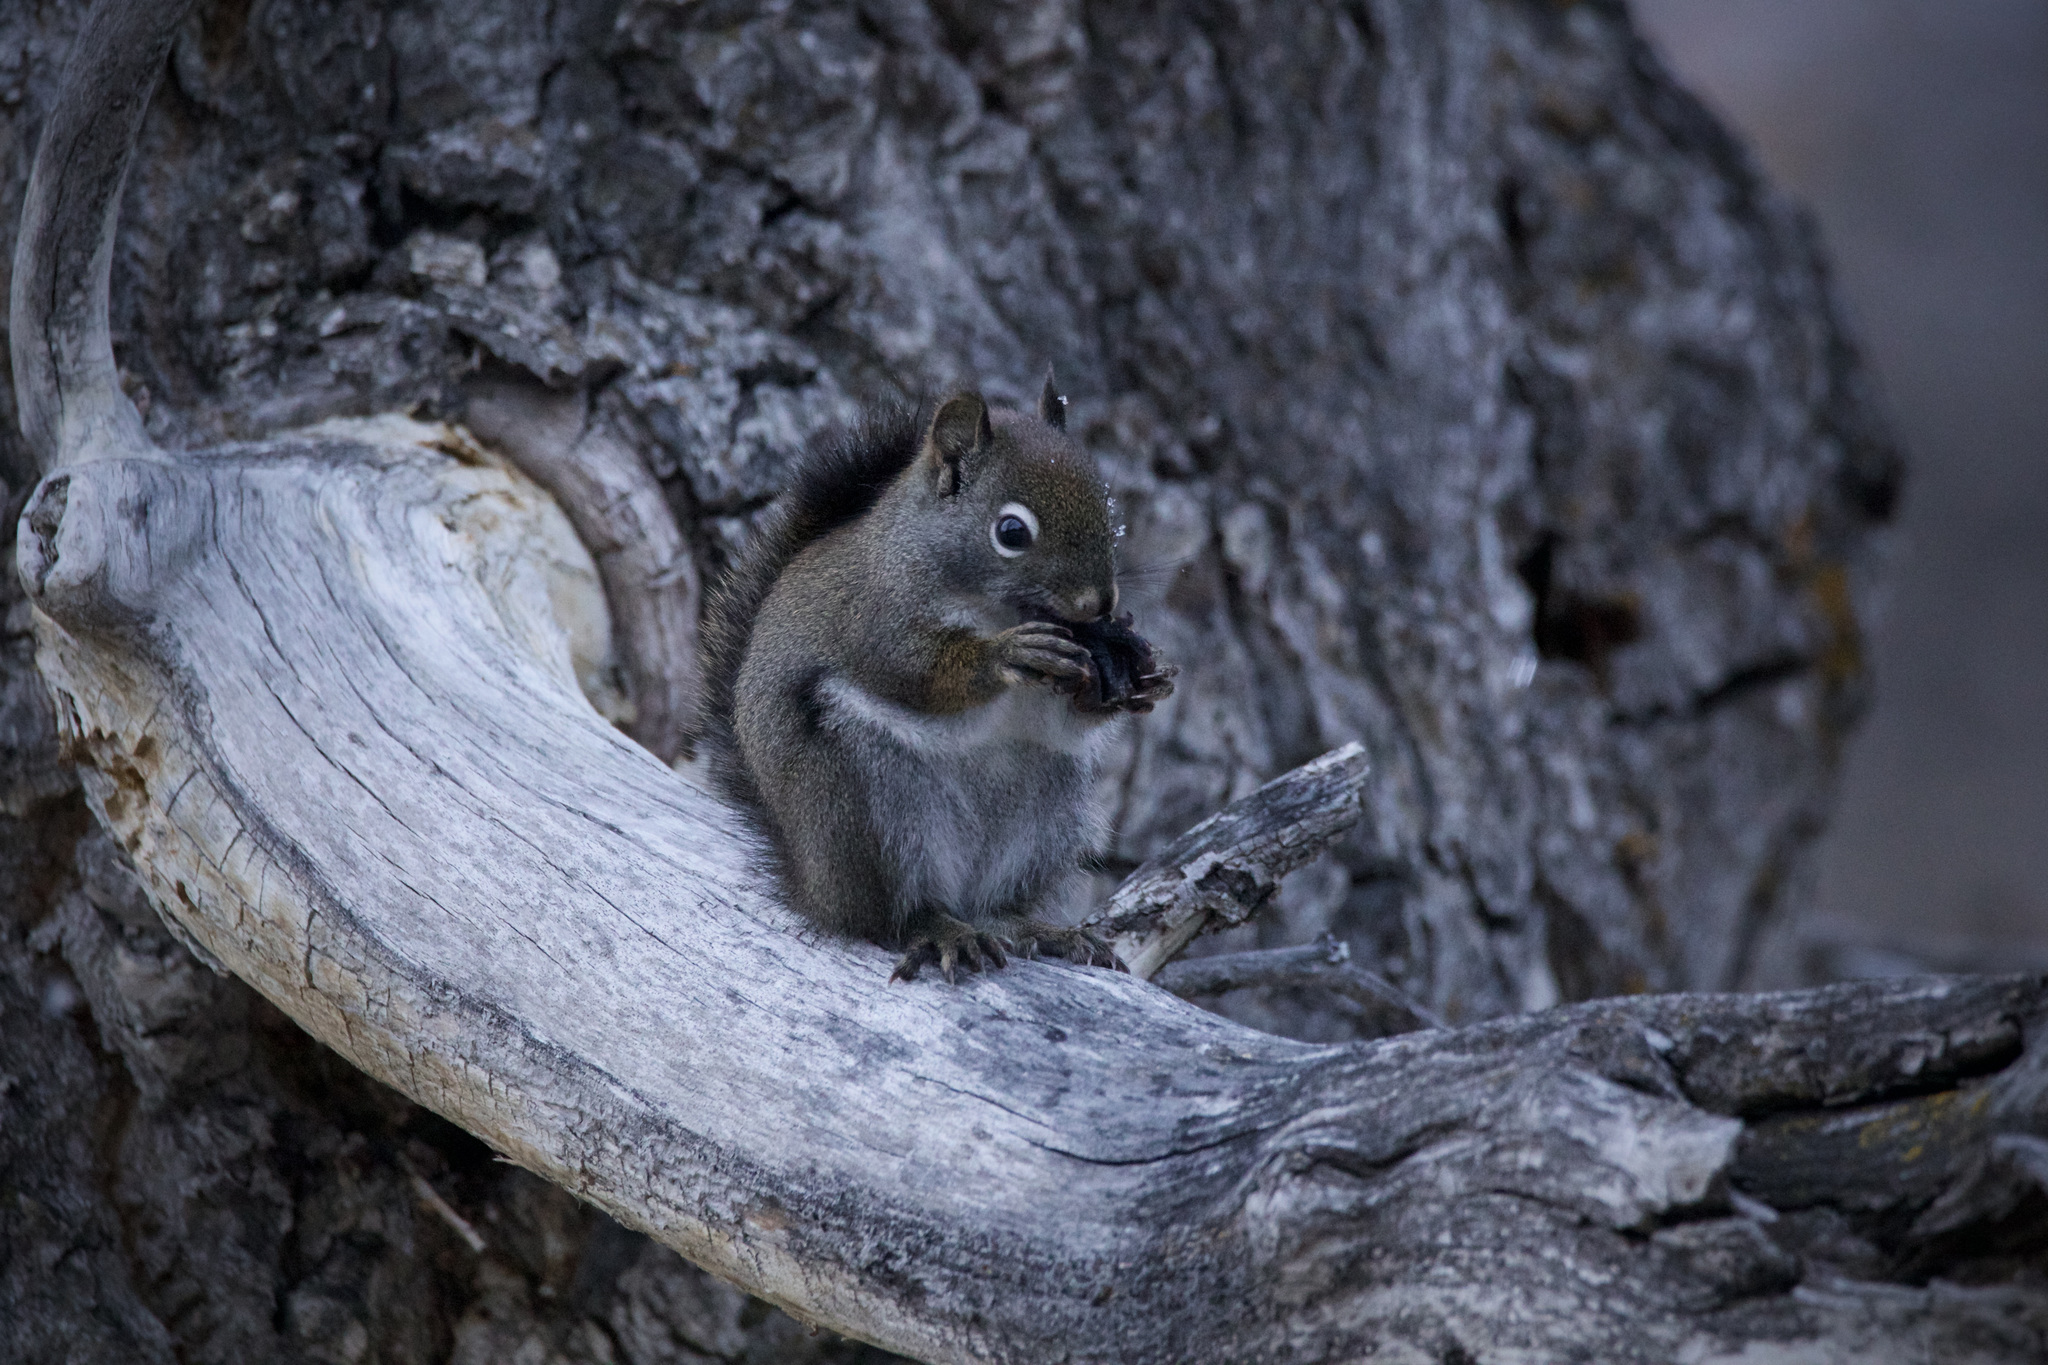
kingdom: Animalia
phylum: Chordata
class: Mammalia
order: Rodentia
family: Sciuridae
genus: Tamiasciurus
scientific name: Tamiasciurus hudsonicus
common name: Red squirrel
